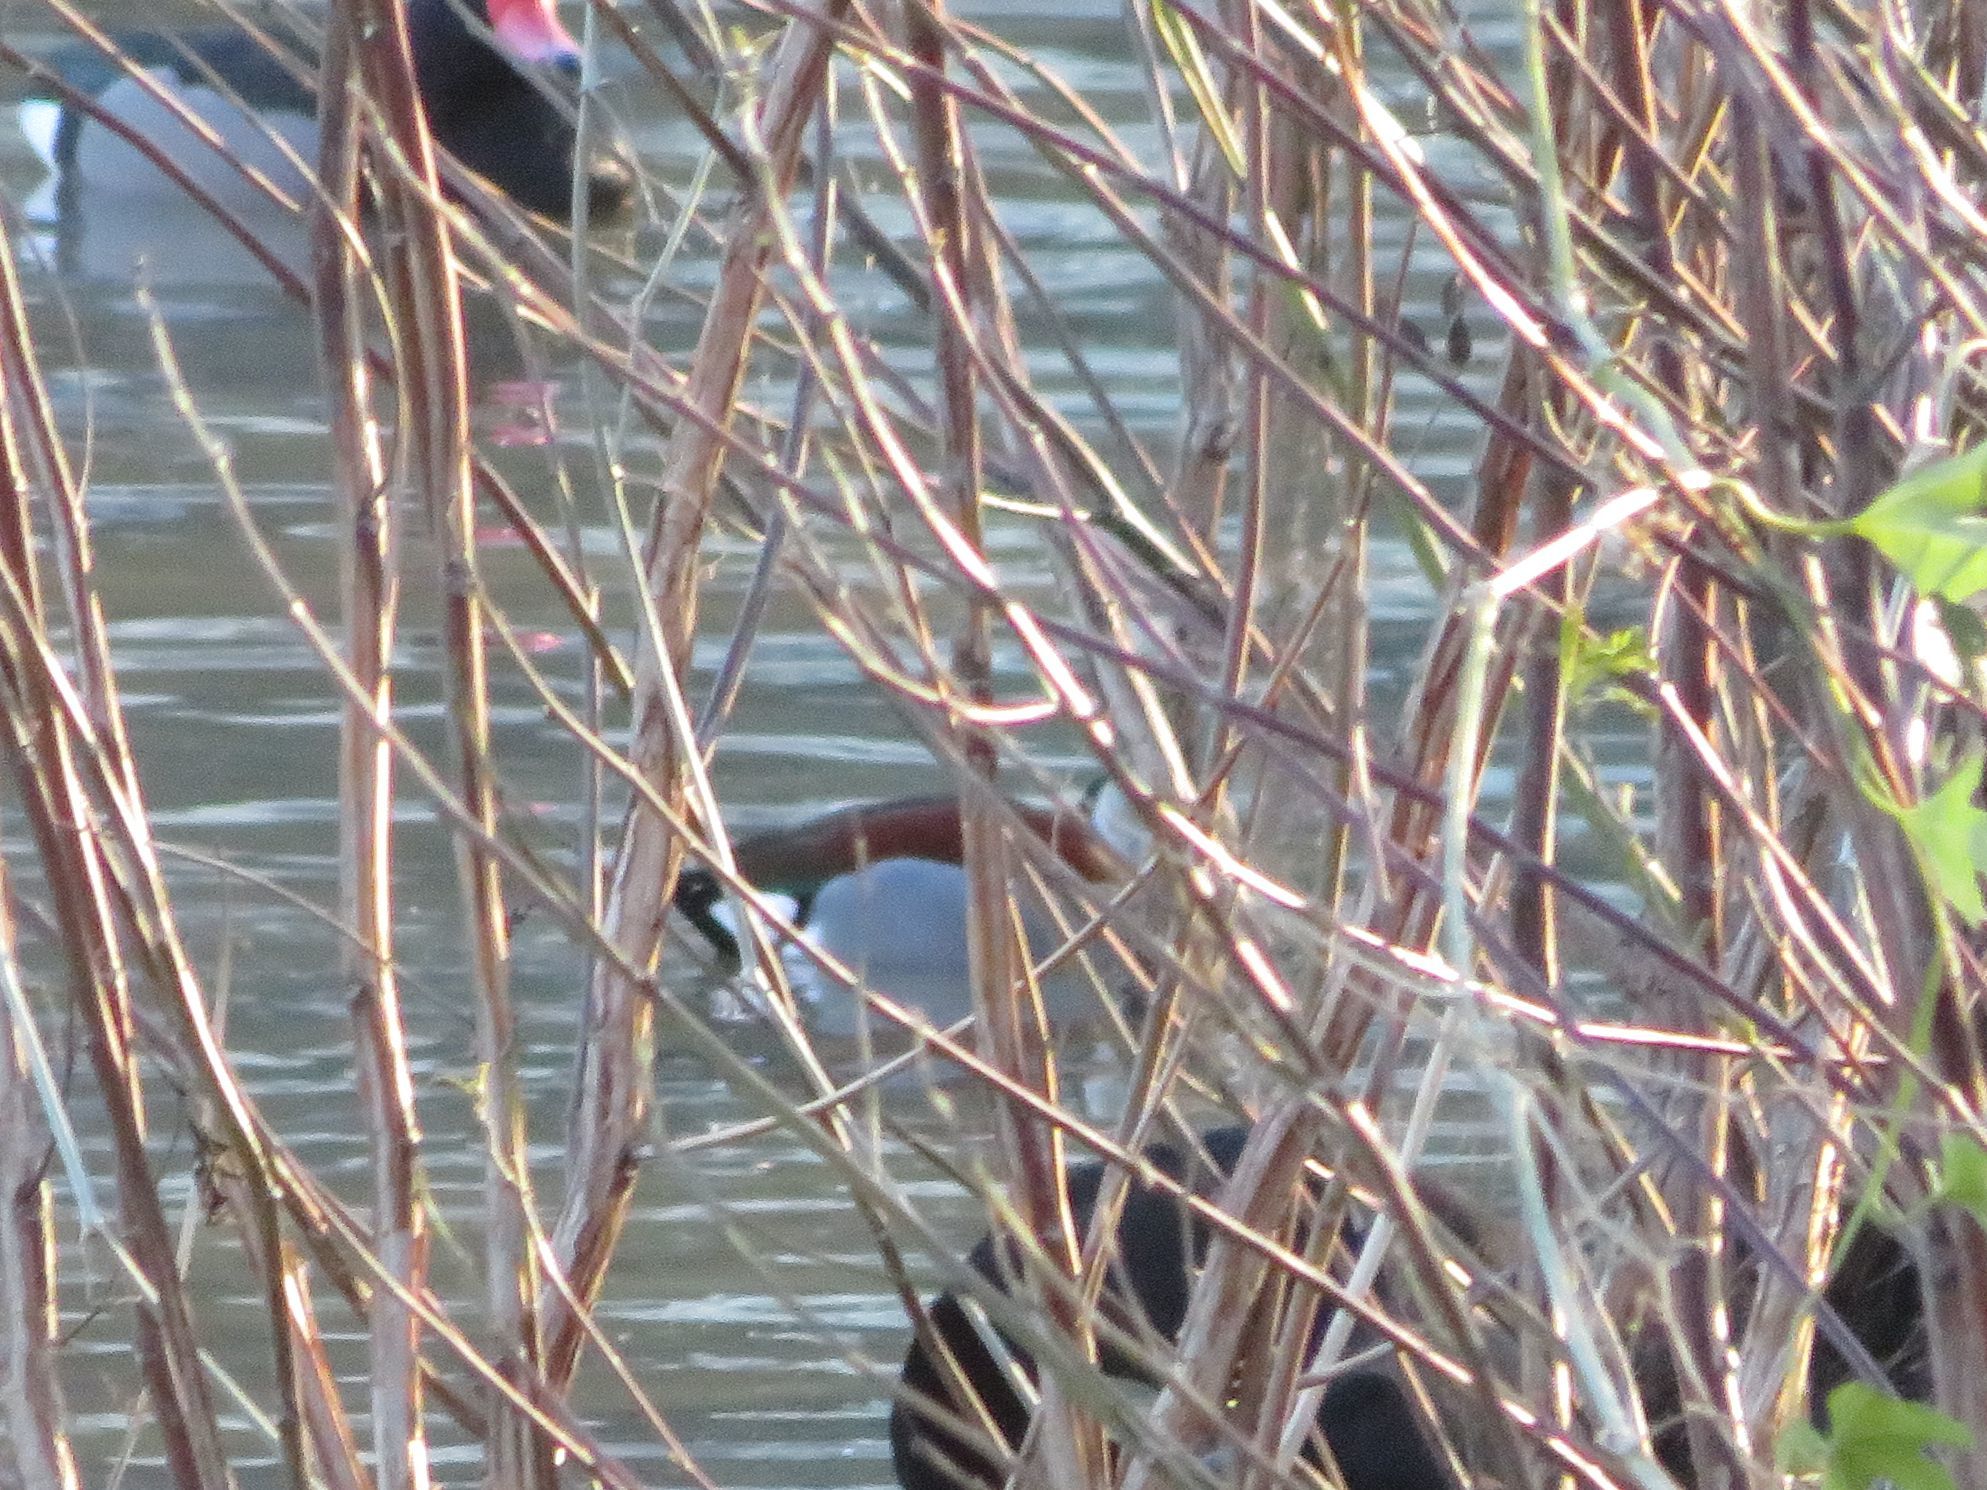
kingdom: Animalia
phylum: Chordata
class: Aves
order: Anseriformes
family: Anatidae
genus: Callonetta
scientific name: Callonetta leucophrys
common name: Ringed teal
